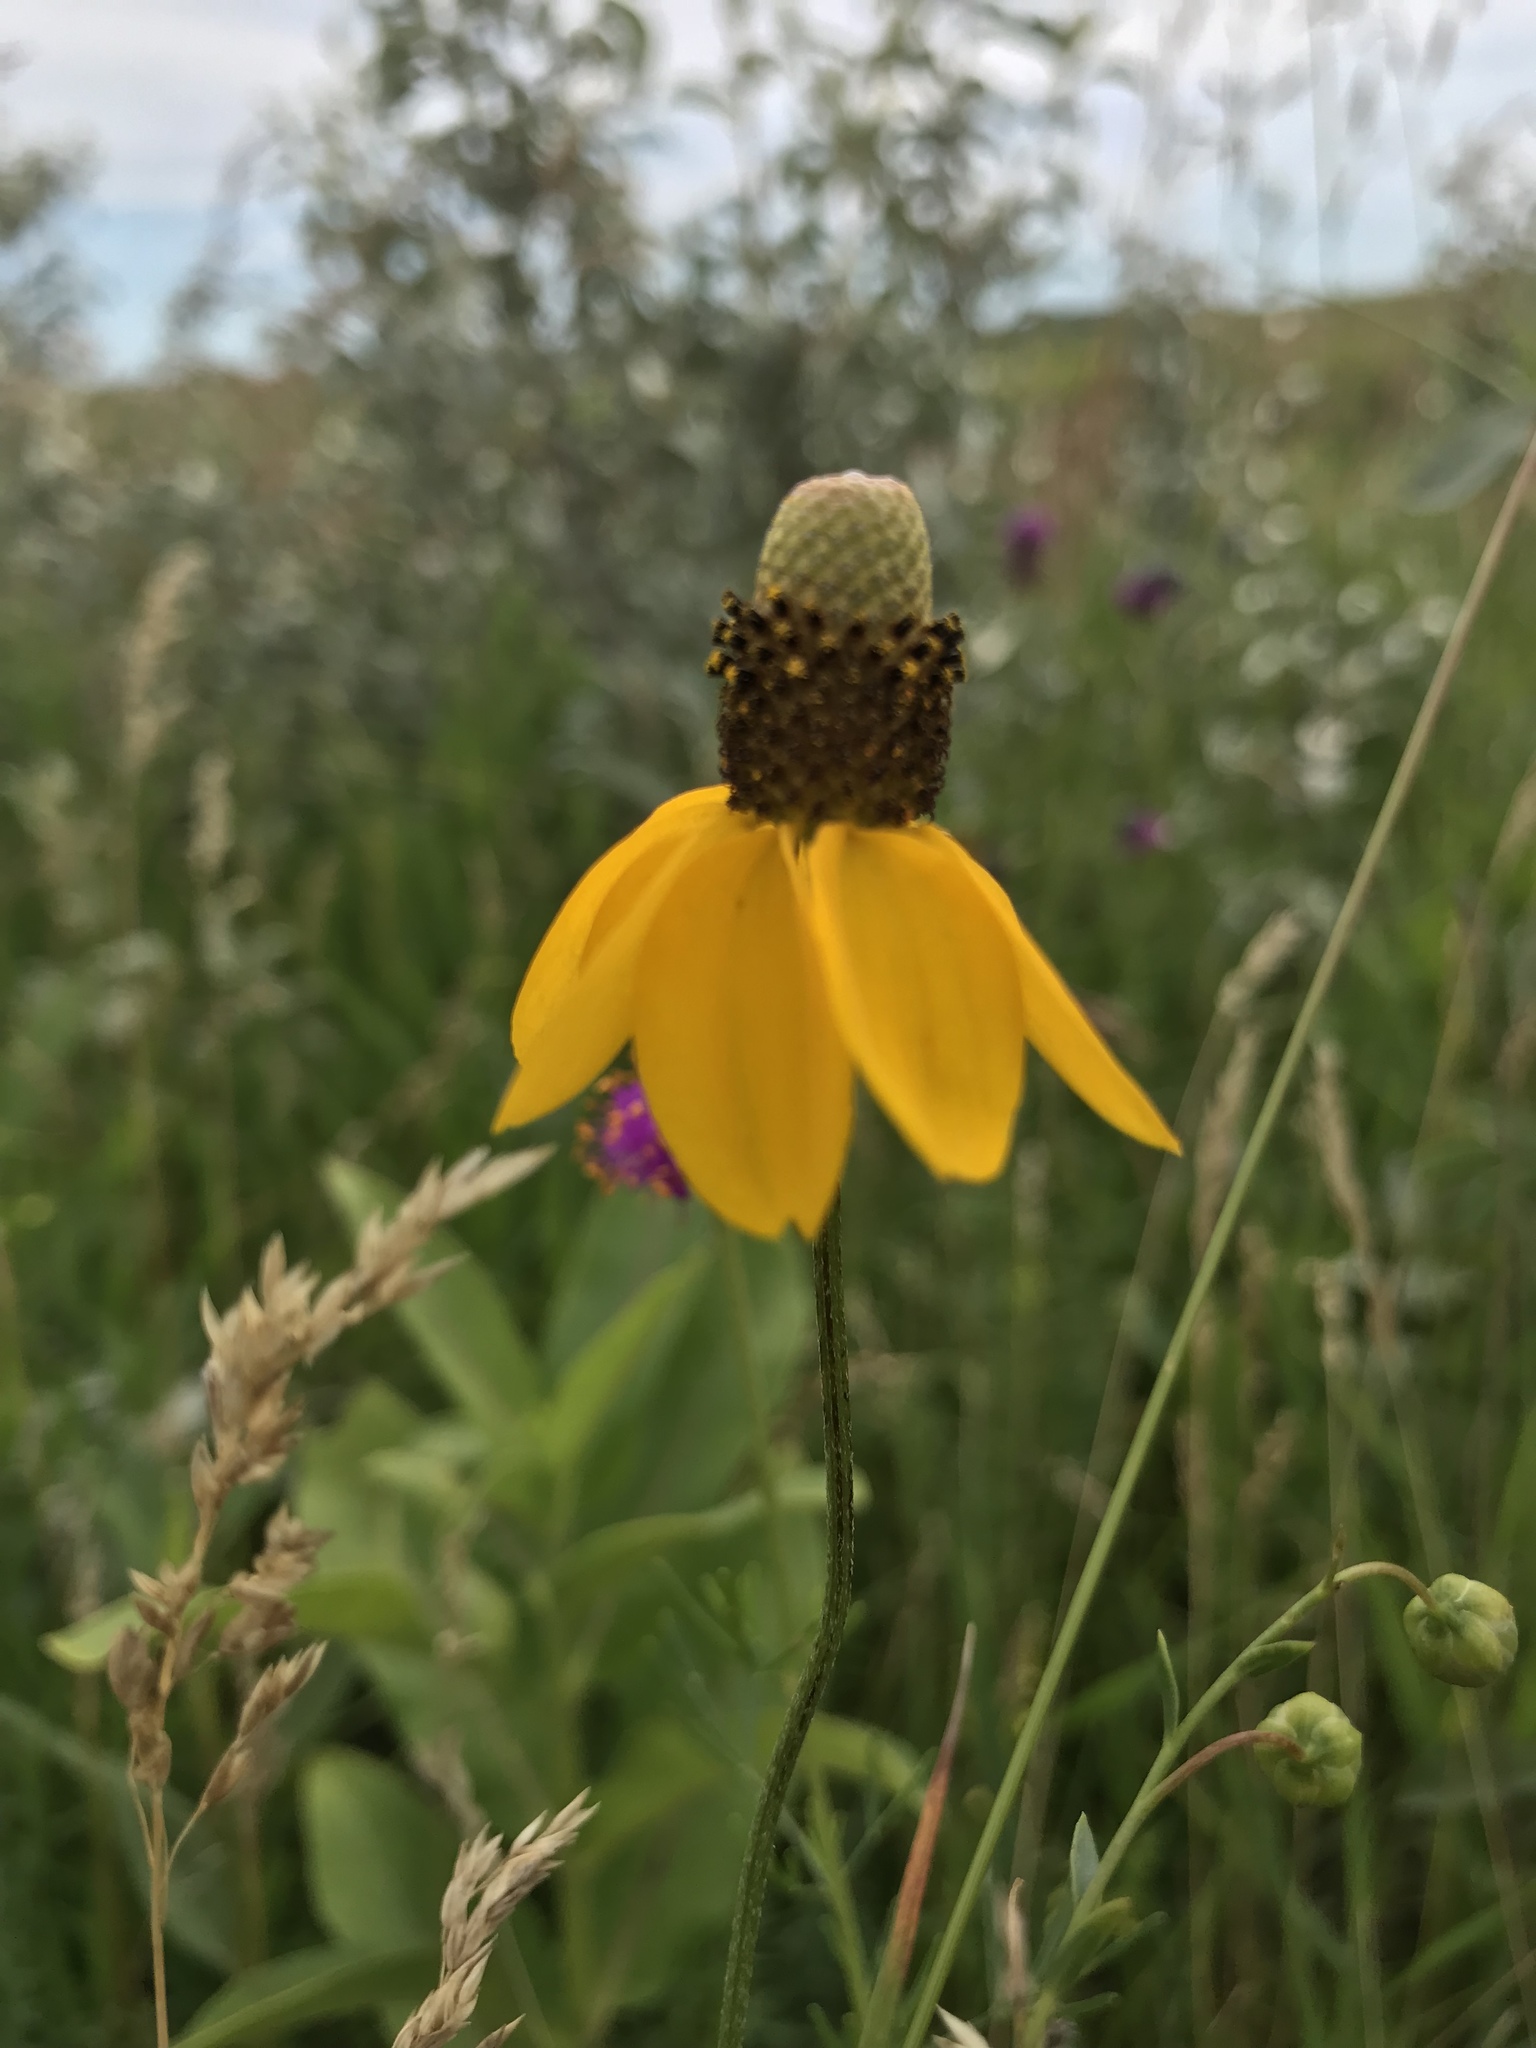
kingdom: Plantae
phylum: Tracheophyta
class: Magnoliopsida
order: Asterales
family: Asteraceae
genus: Ratibida
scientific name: Ratibida columnifera
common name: Prairie coneflower
